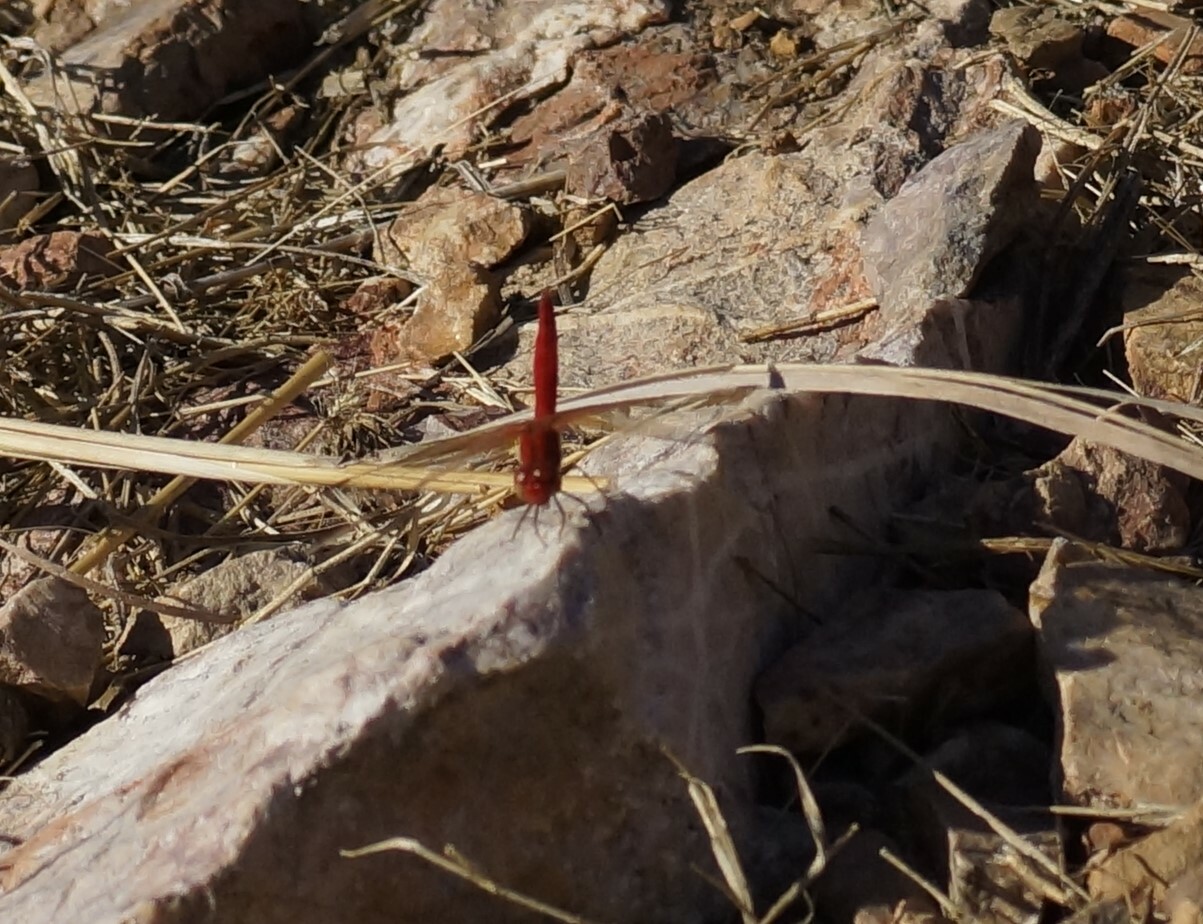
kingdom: Animalia
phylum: Arthropoda
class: Insecta
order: Odonata
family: Libellulidae
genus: Diplacodes
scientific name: Diplacodes haematodes
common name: Scarlet percher
